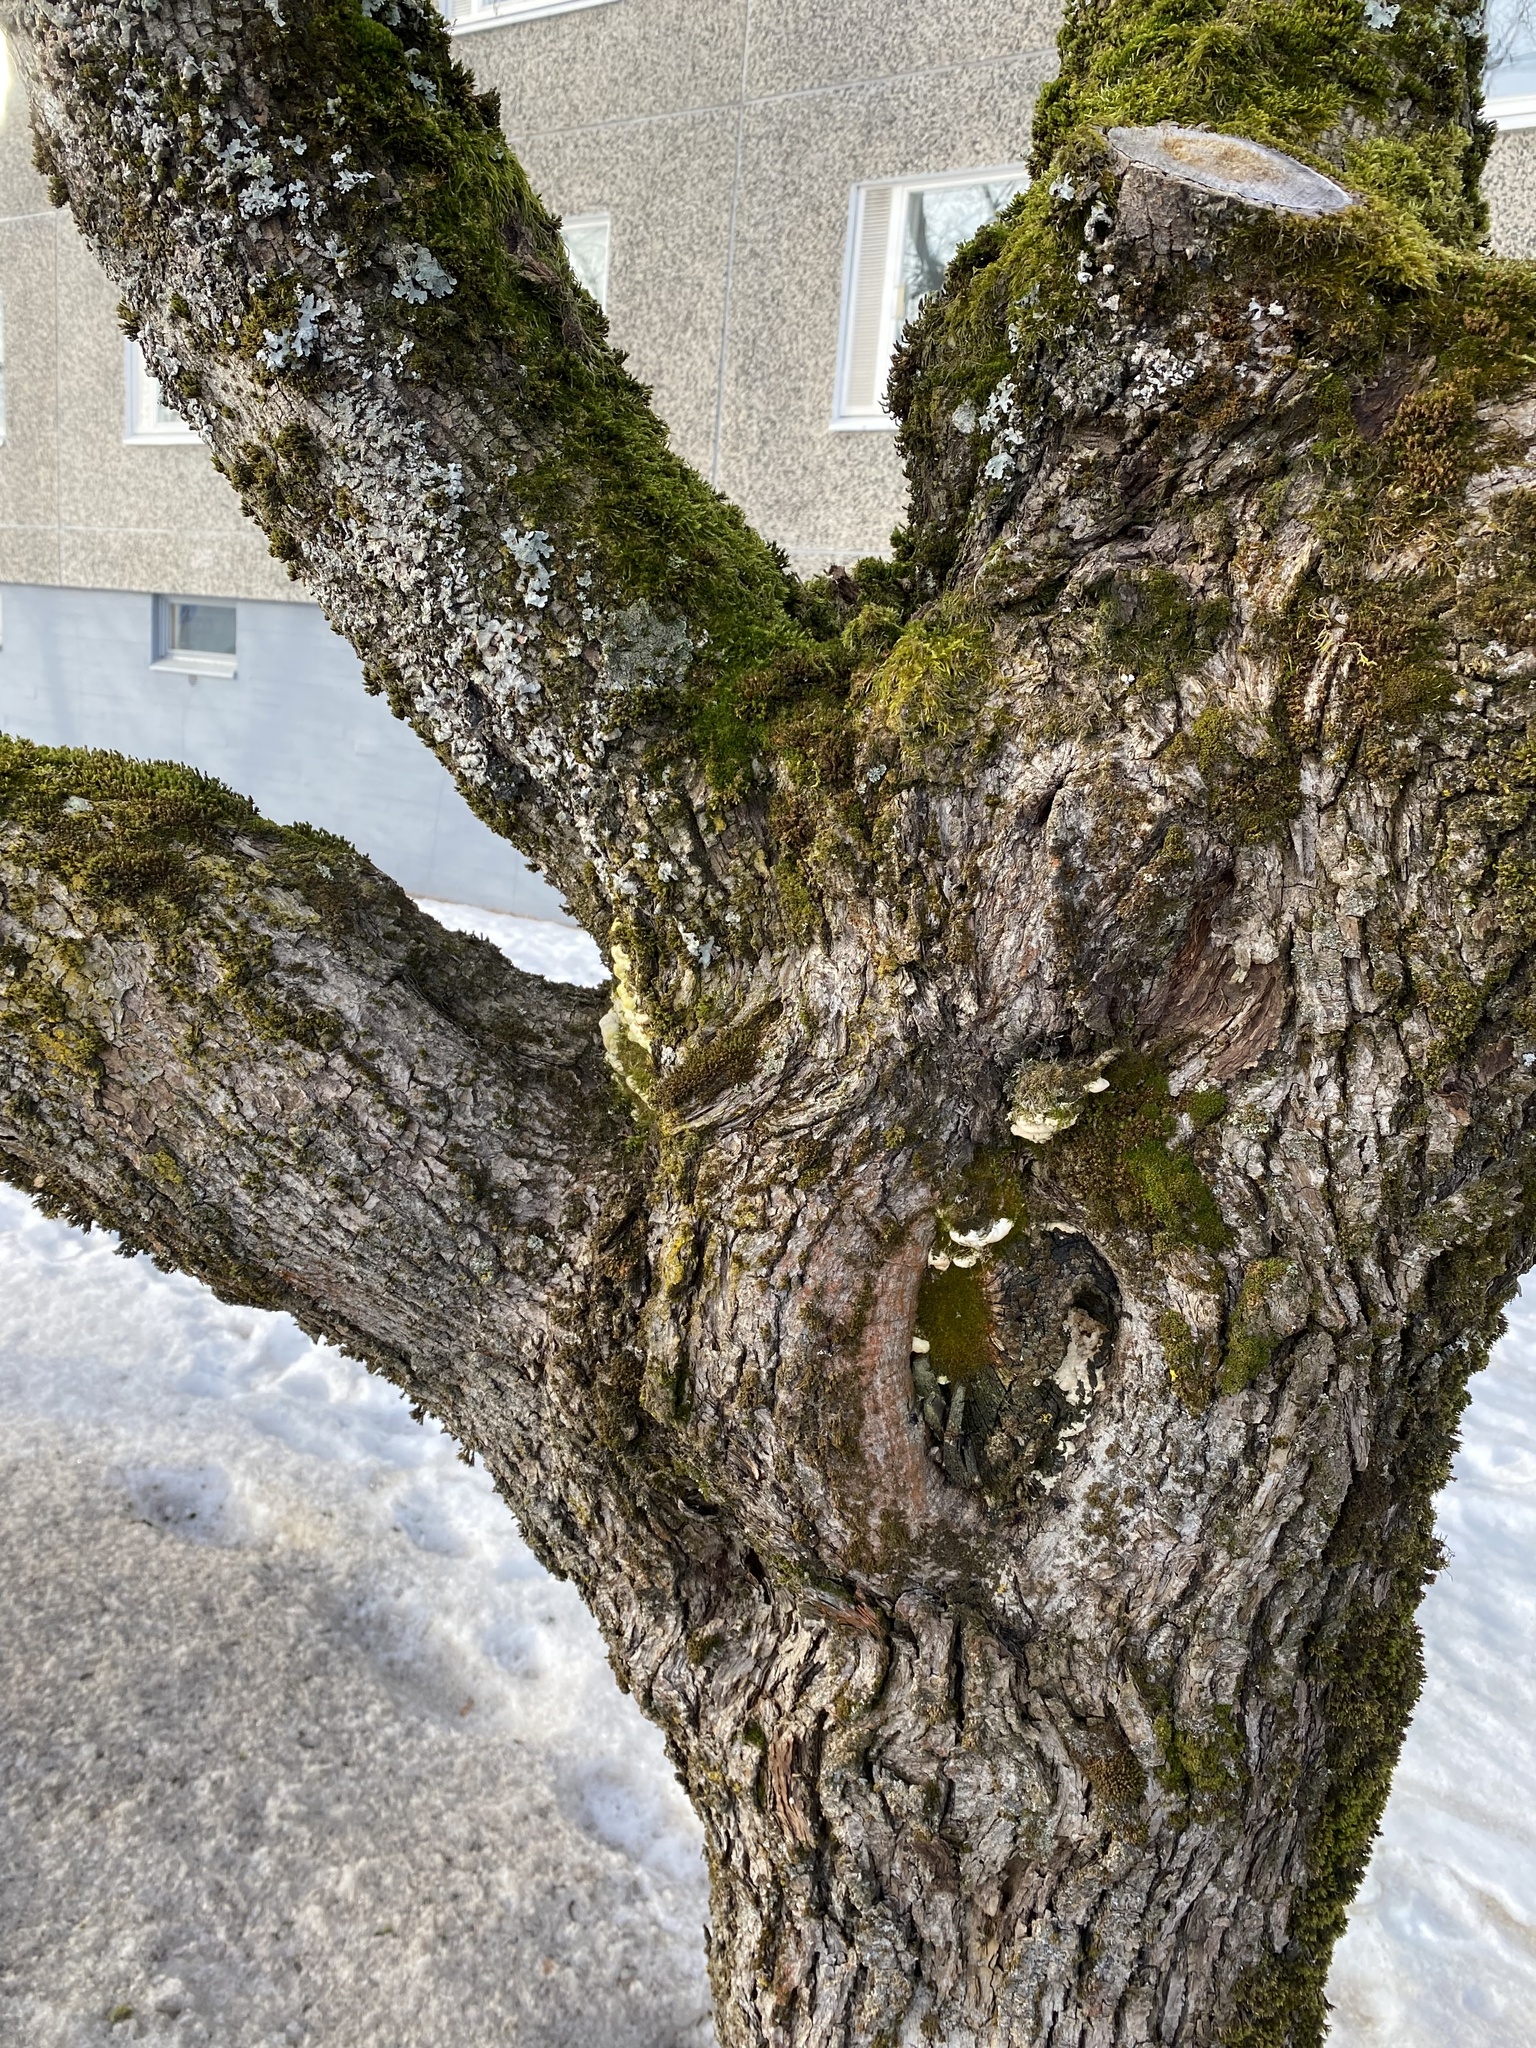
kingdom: Fungi
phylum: Basidiomycota
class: Agaricomycetes
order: Hymenochaetales
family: Oxyporaceae
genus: Oxyporus
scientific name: Oxyporus populinus
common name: Poplar bracket
